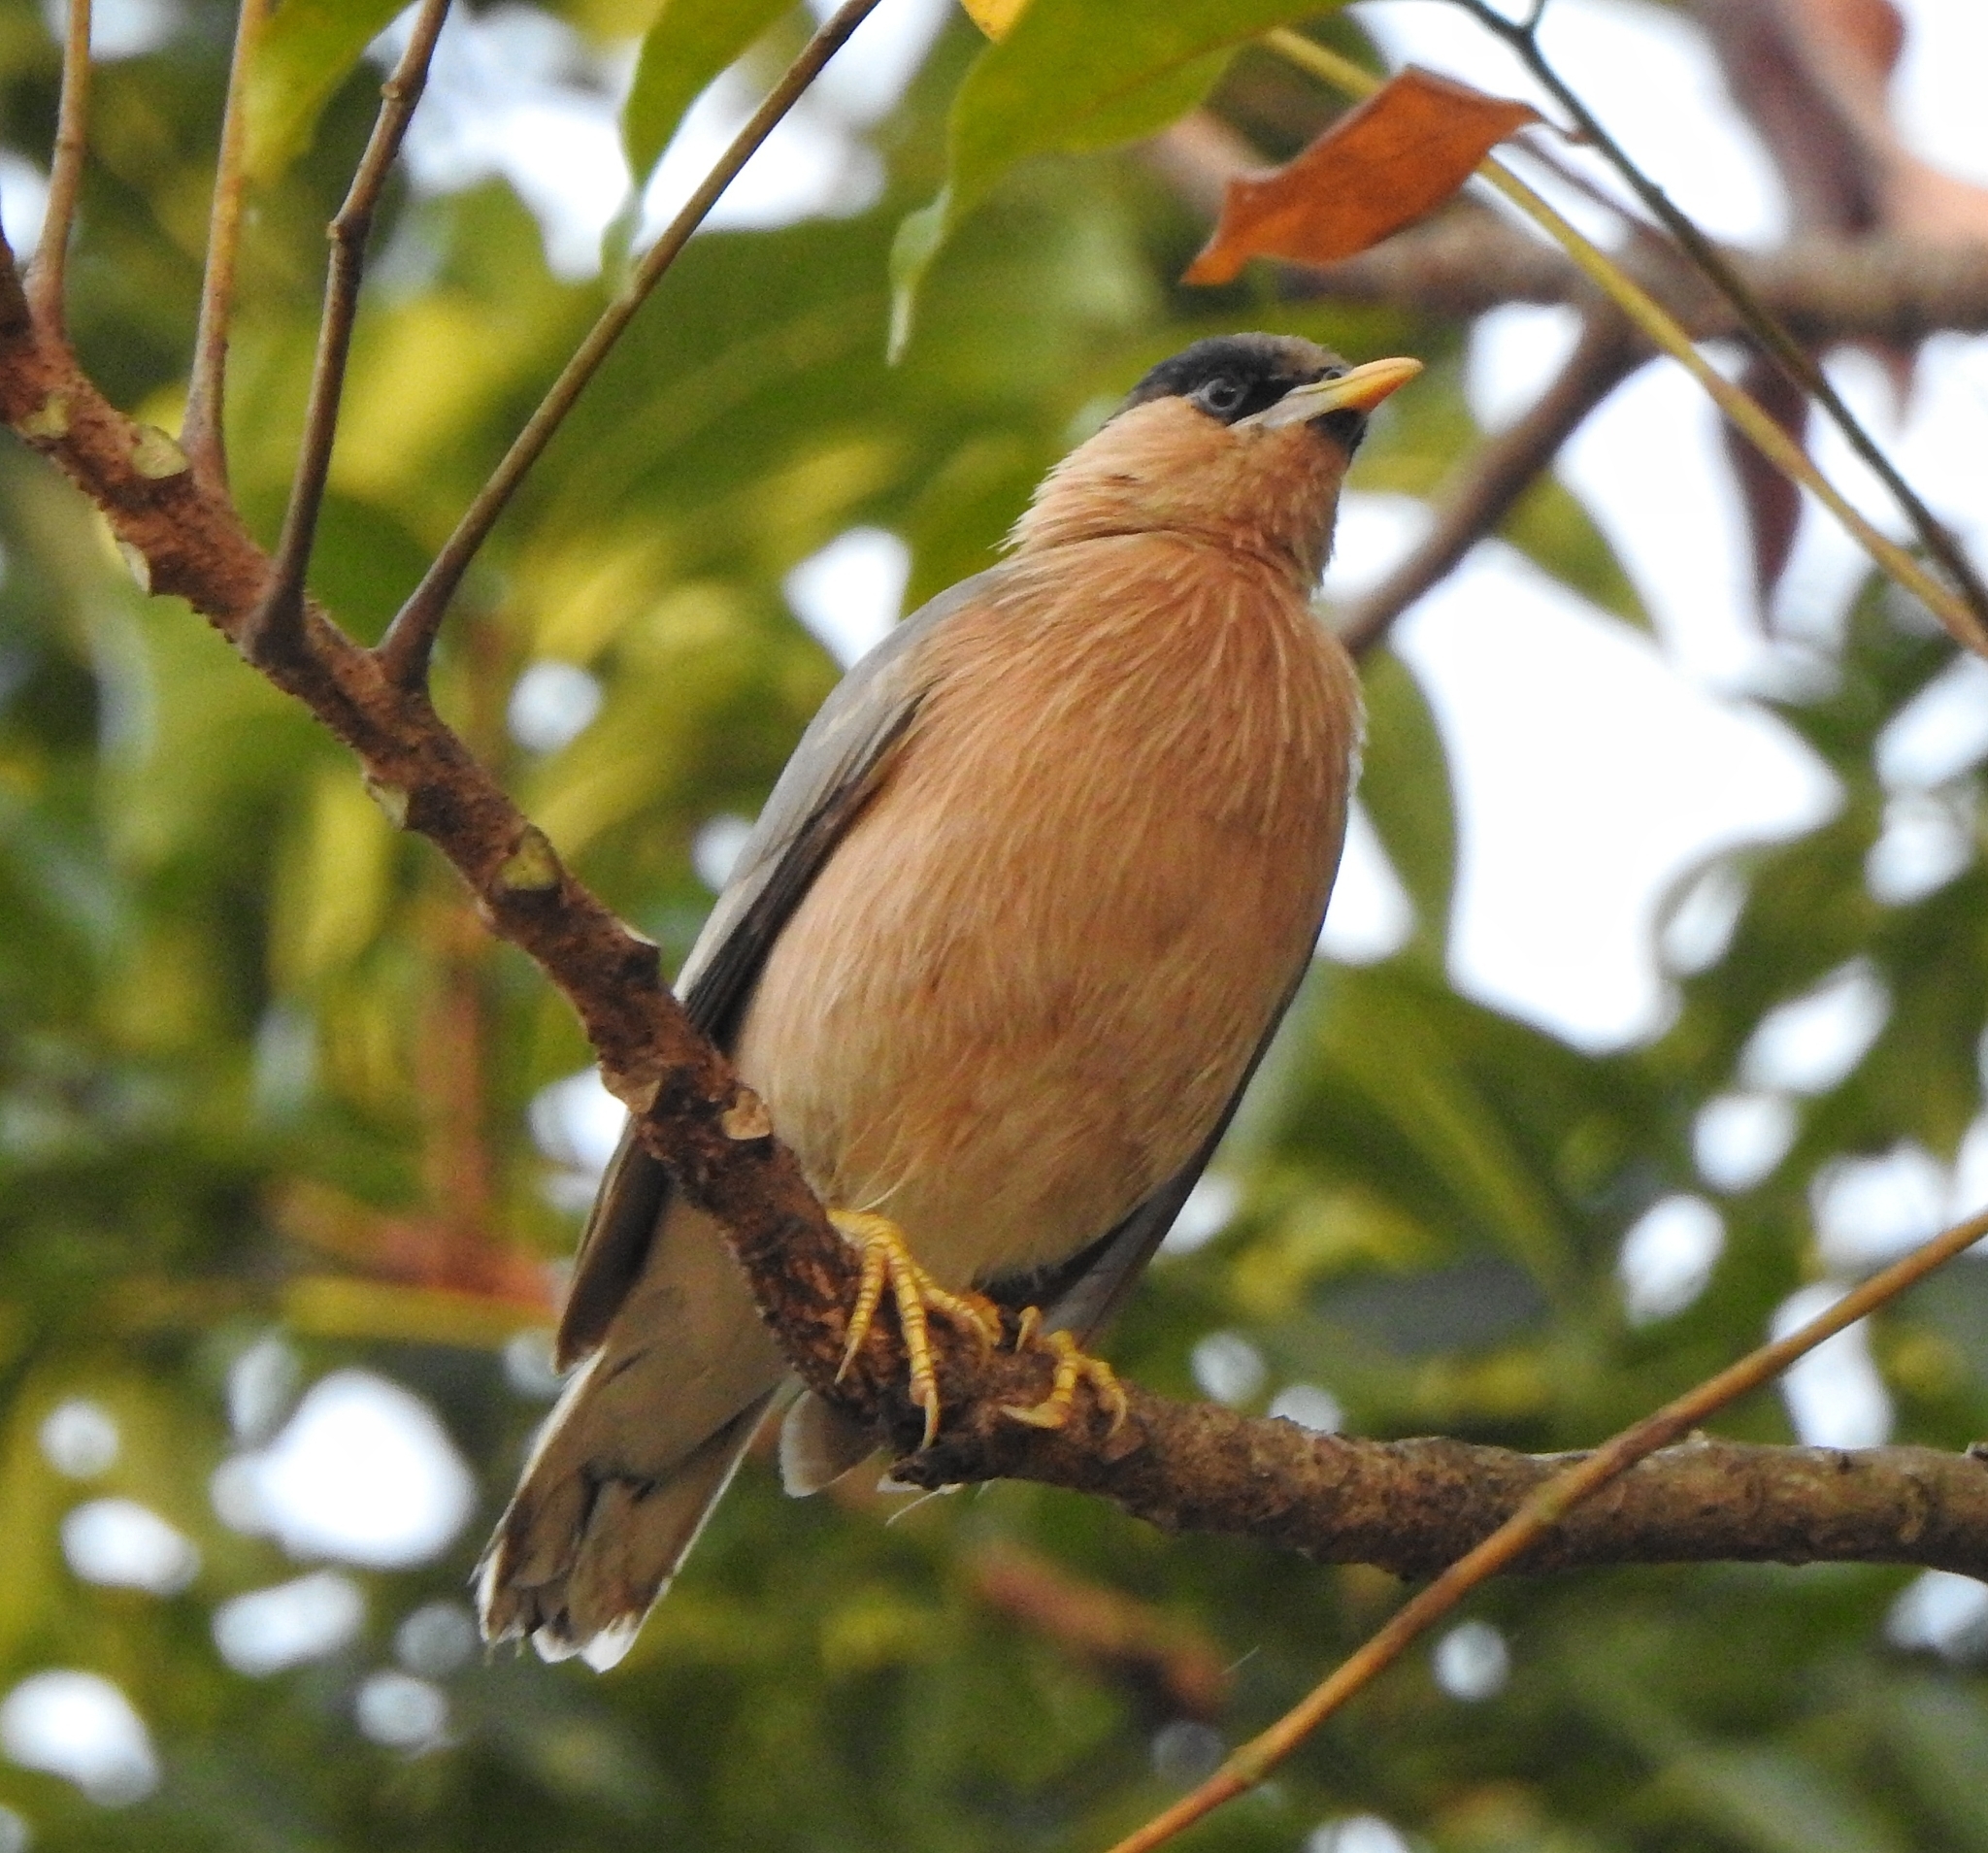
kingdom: Animalia
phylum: Chordata
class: Aves
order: Passeriformes
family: Sturnidae
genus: Sturnia
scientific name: Sturnia pagodarum
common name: Brahminy starling
